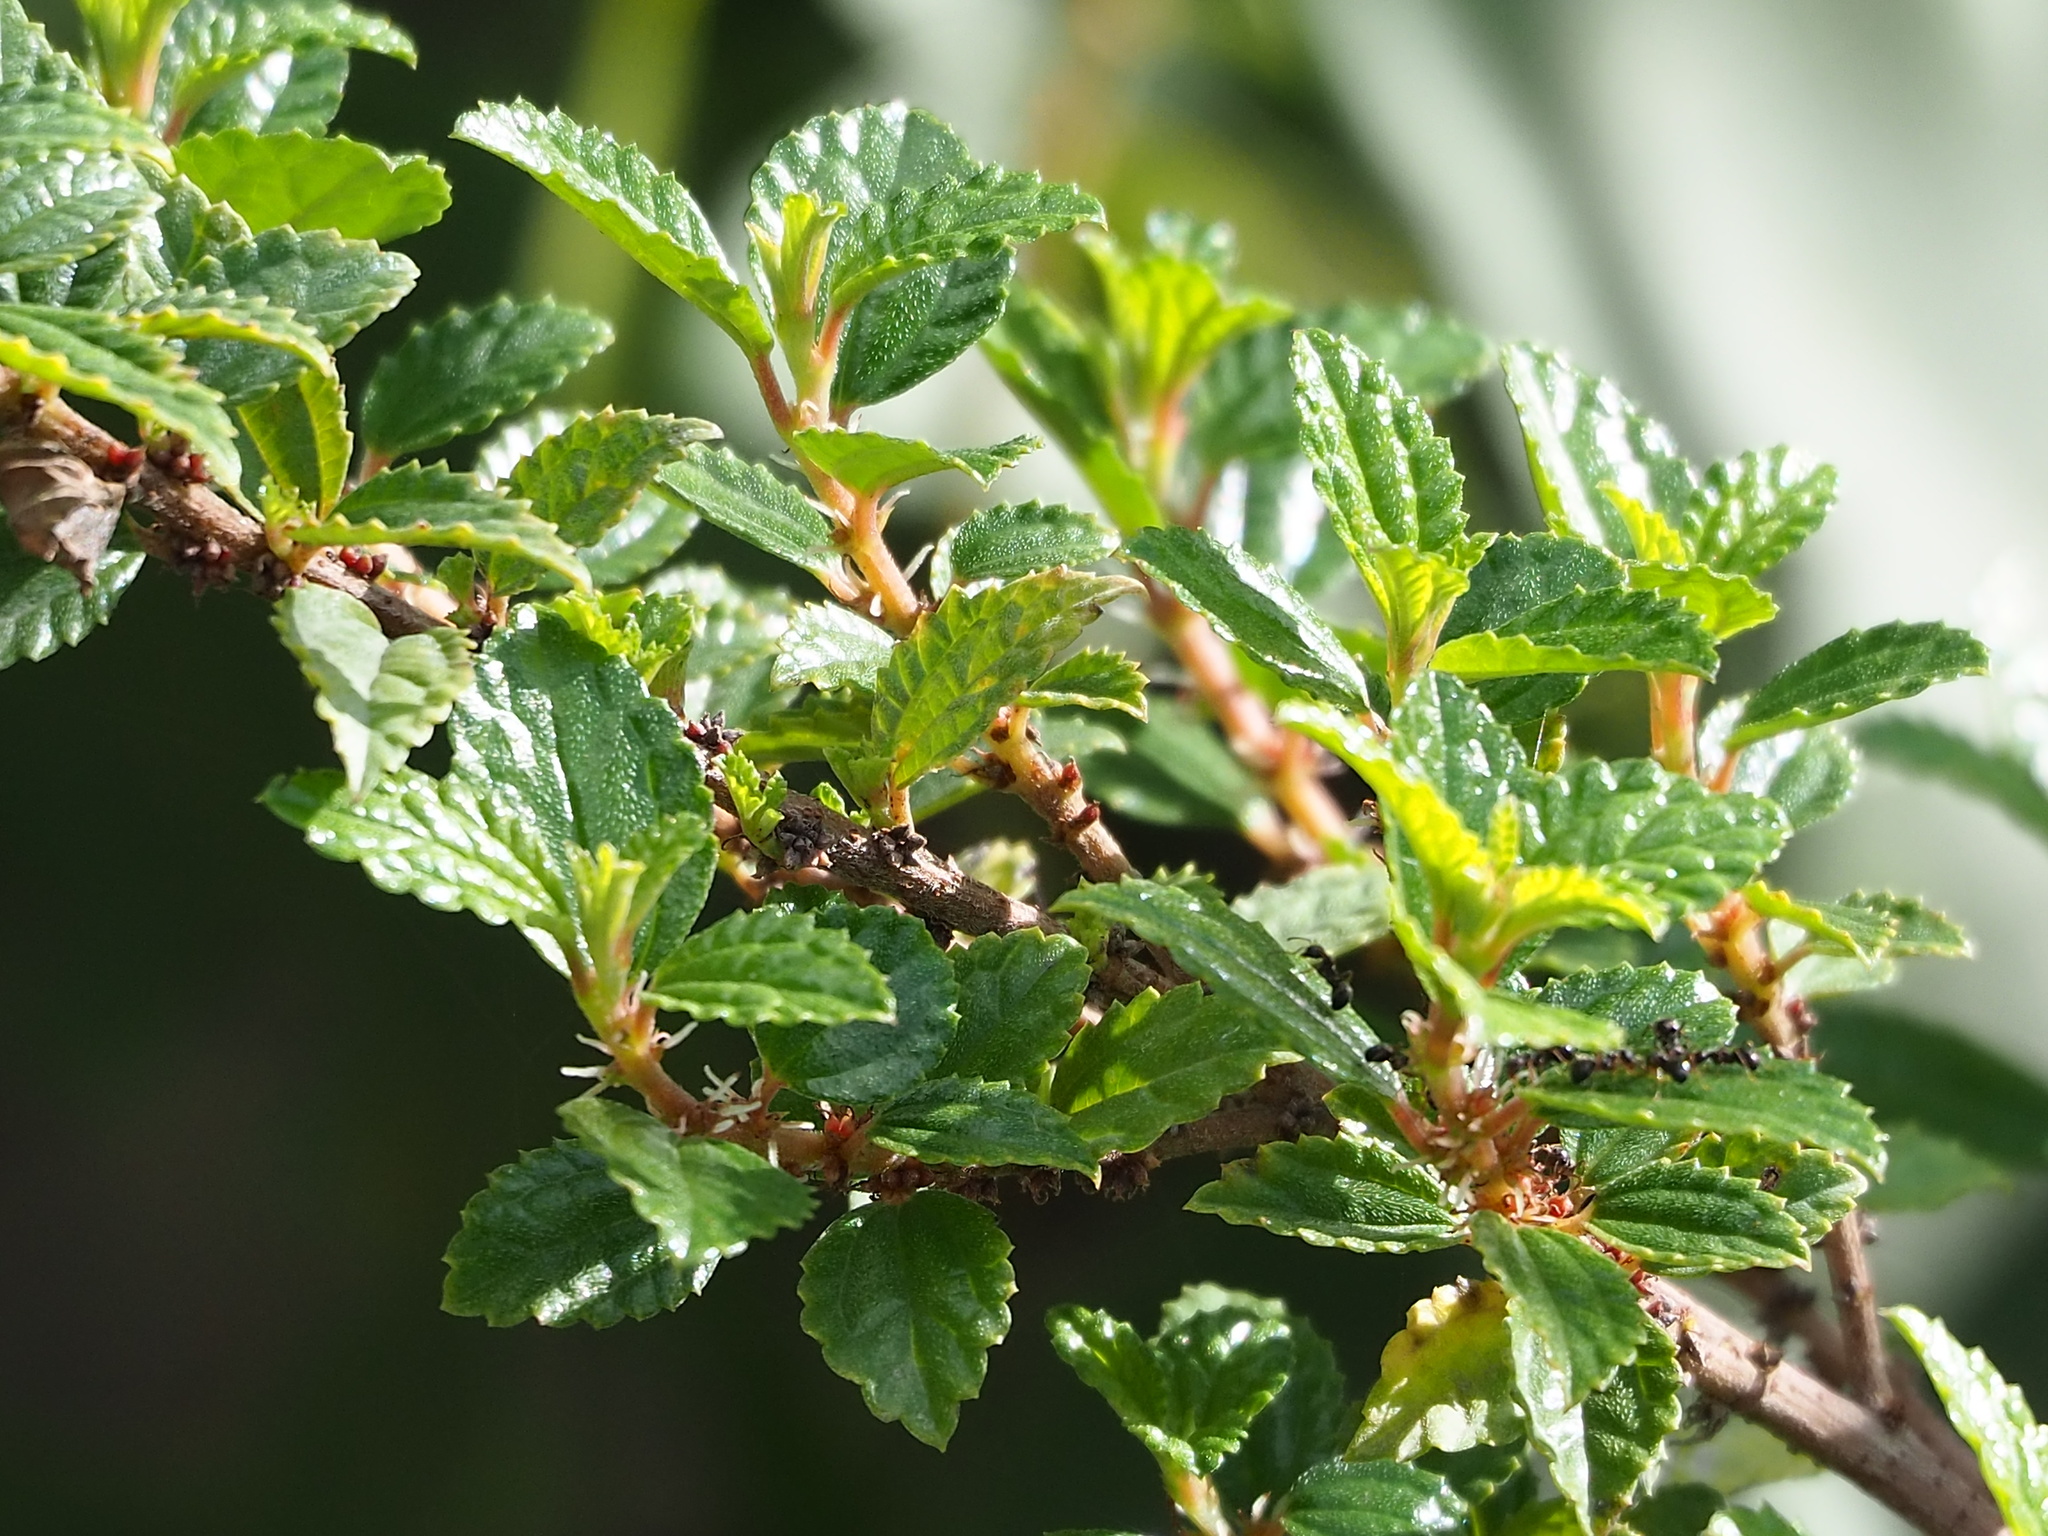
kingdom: Plantae
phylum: Tracheophyta
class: Magnoliopsida
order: Rosales
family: Urticaceae
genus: Pouzolzia
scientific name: Pouzolzia sanguinea
